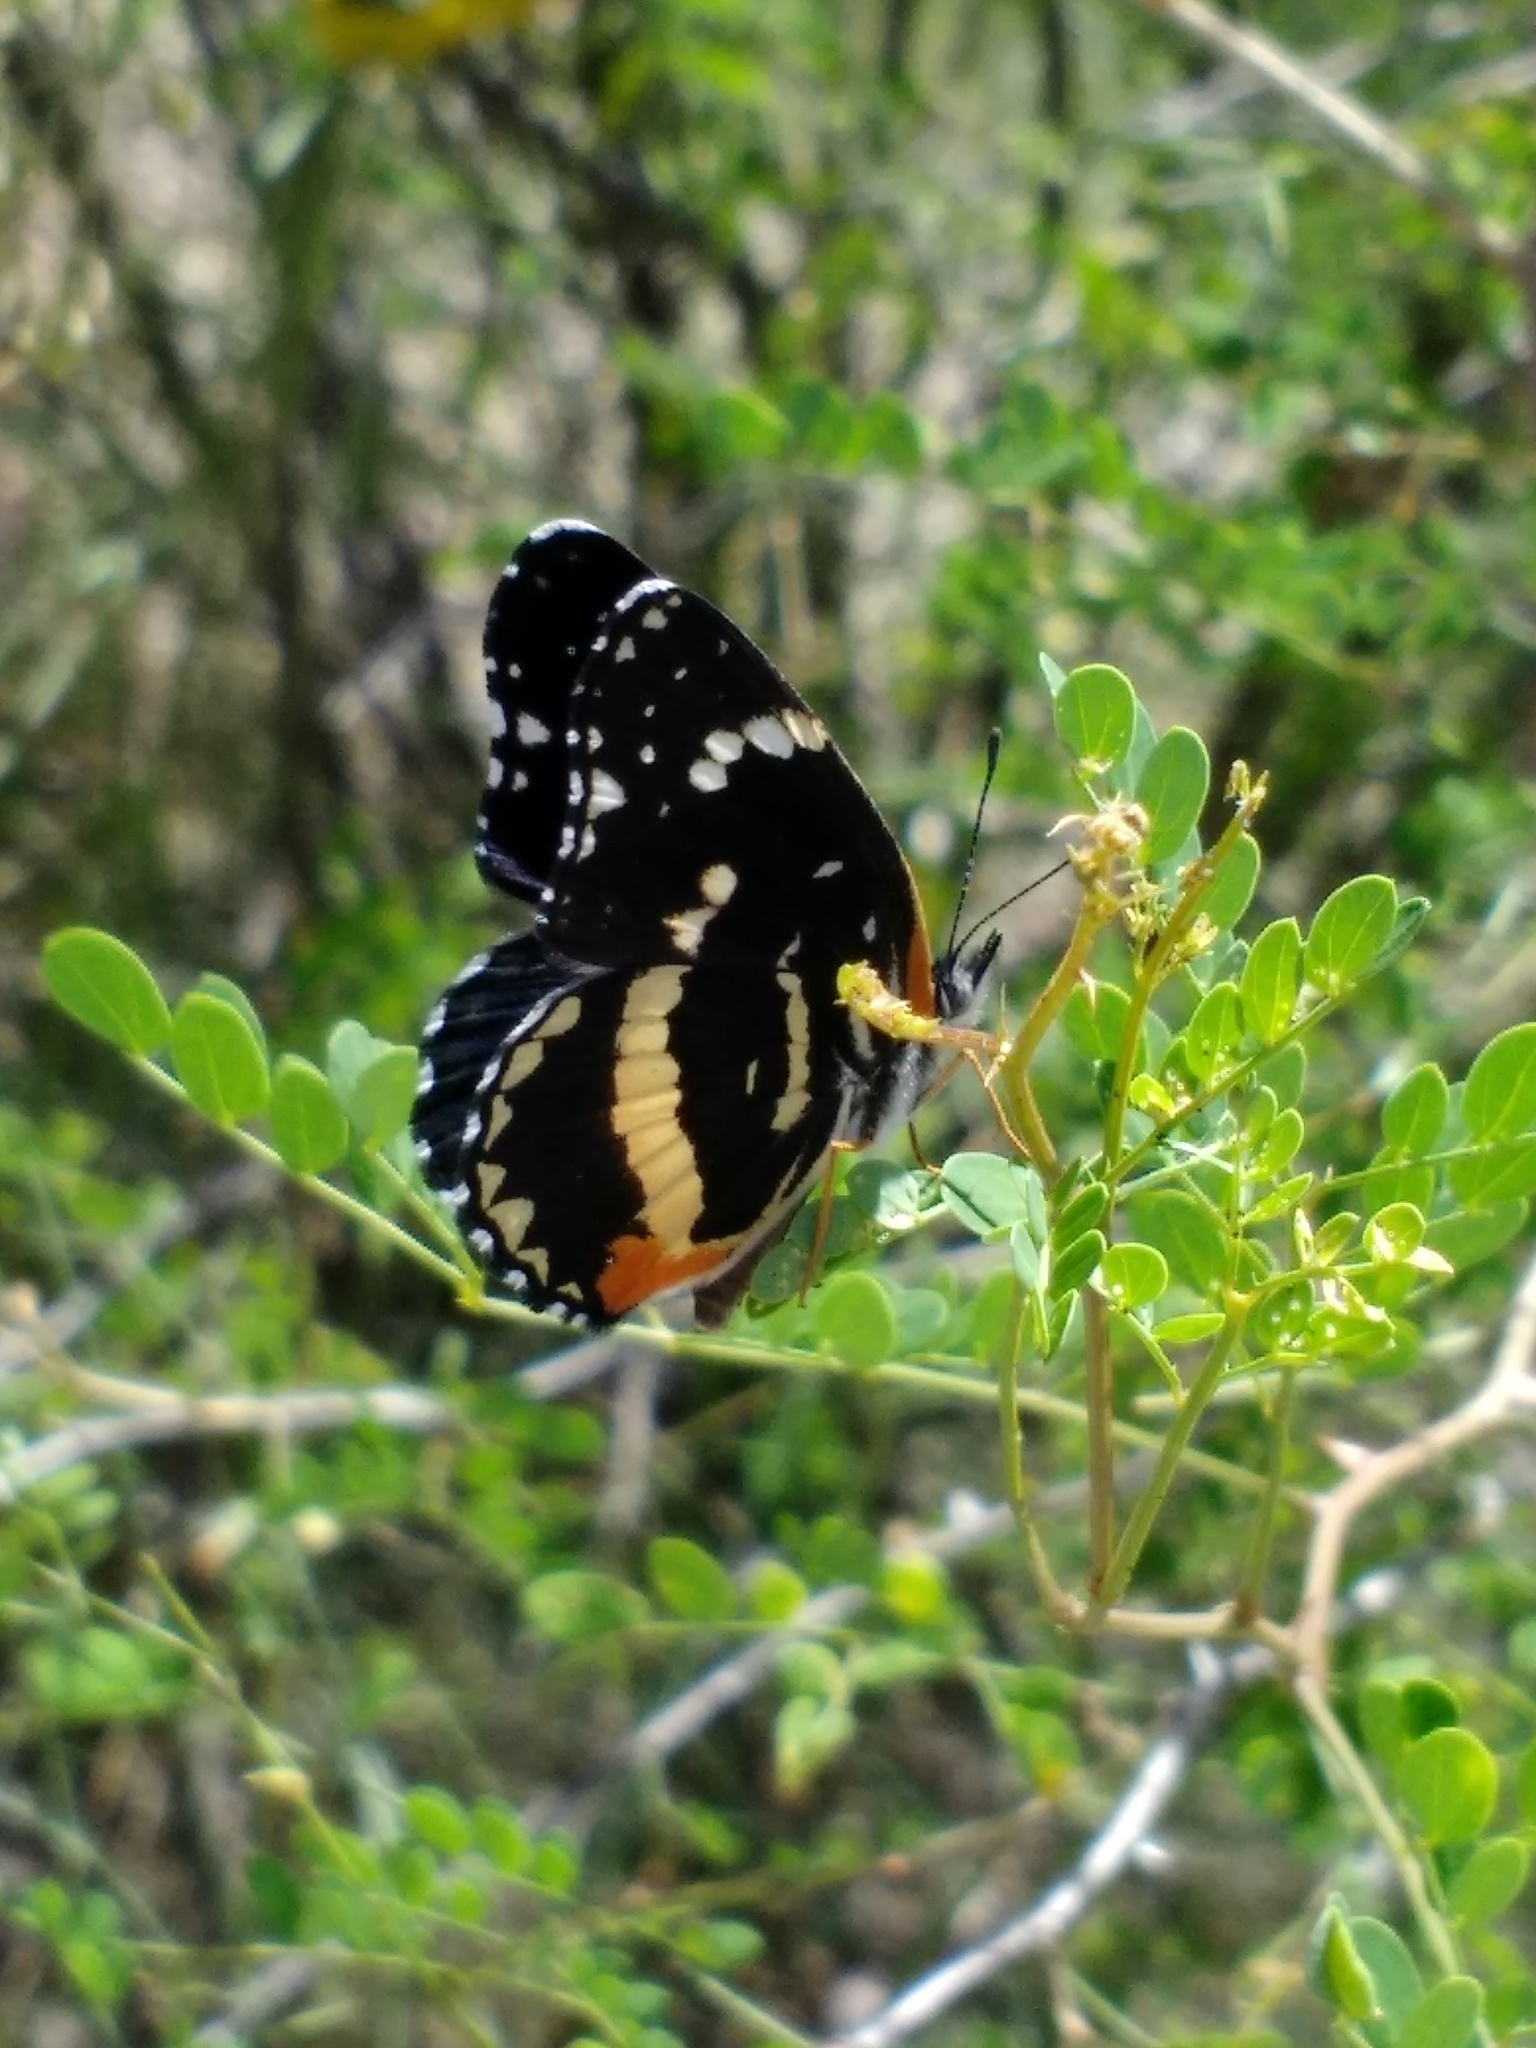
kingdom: Animalia
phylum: Arthropoda
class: Insecta
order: Lepidoptera
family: Nymphalidae
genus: Chlosyne
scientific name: Chlosyne lacinia
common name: Bordered patch
